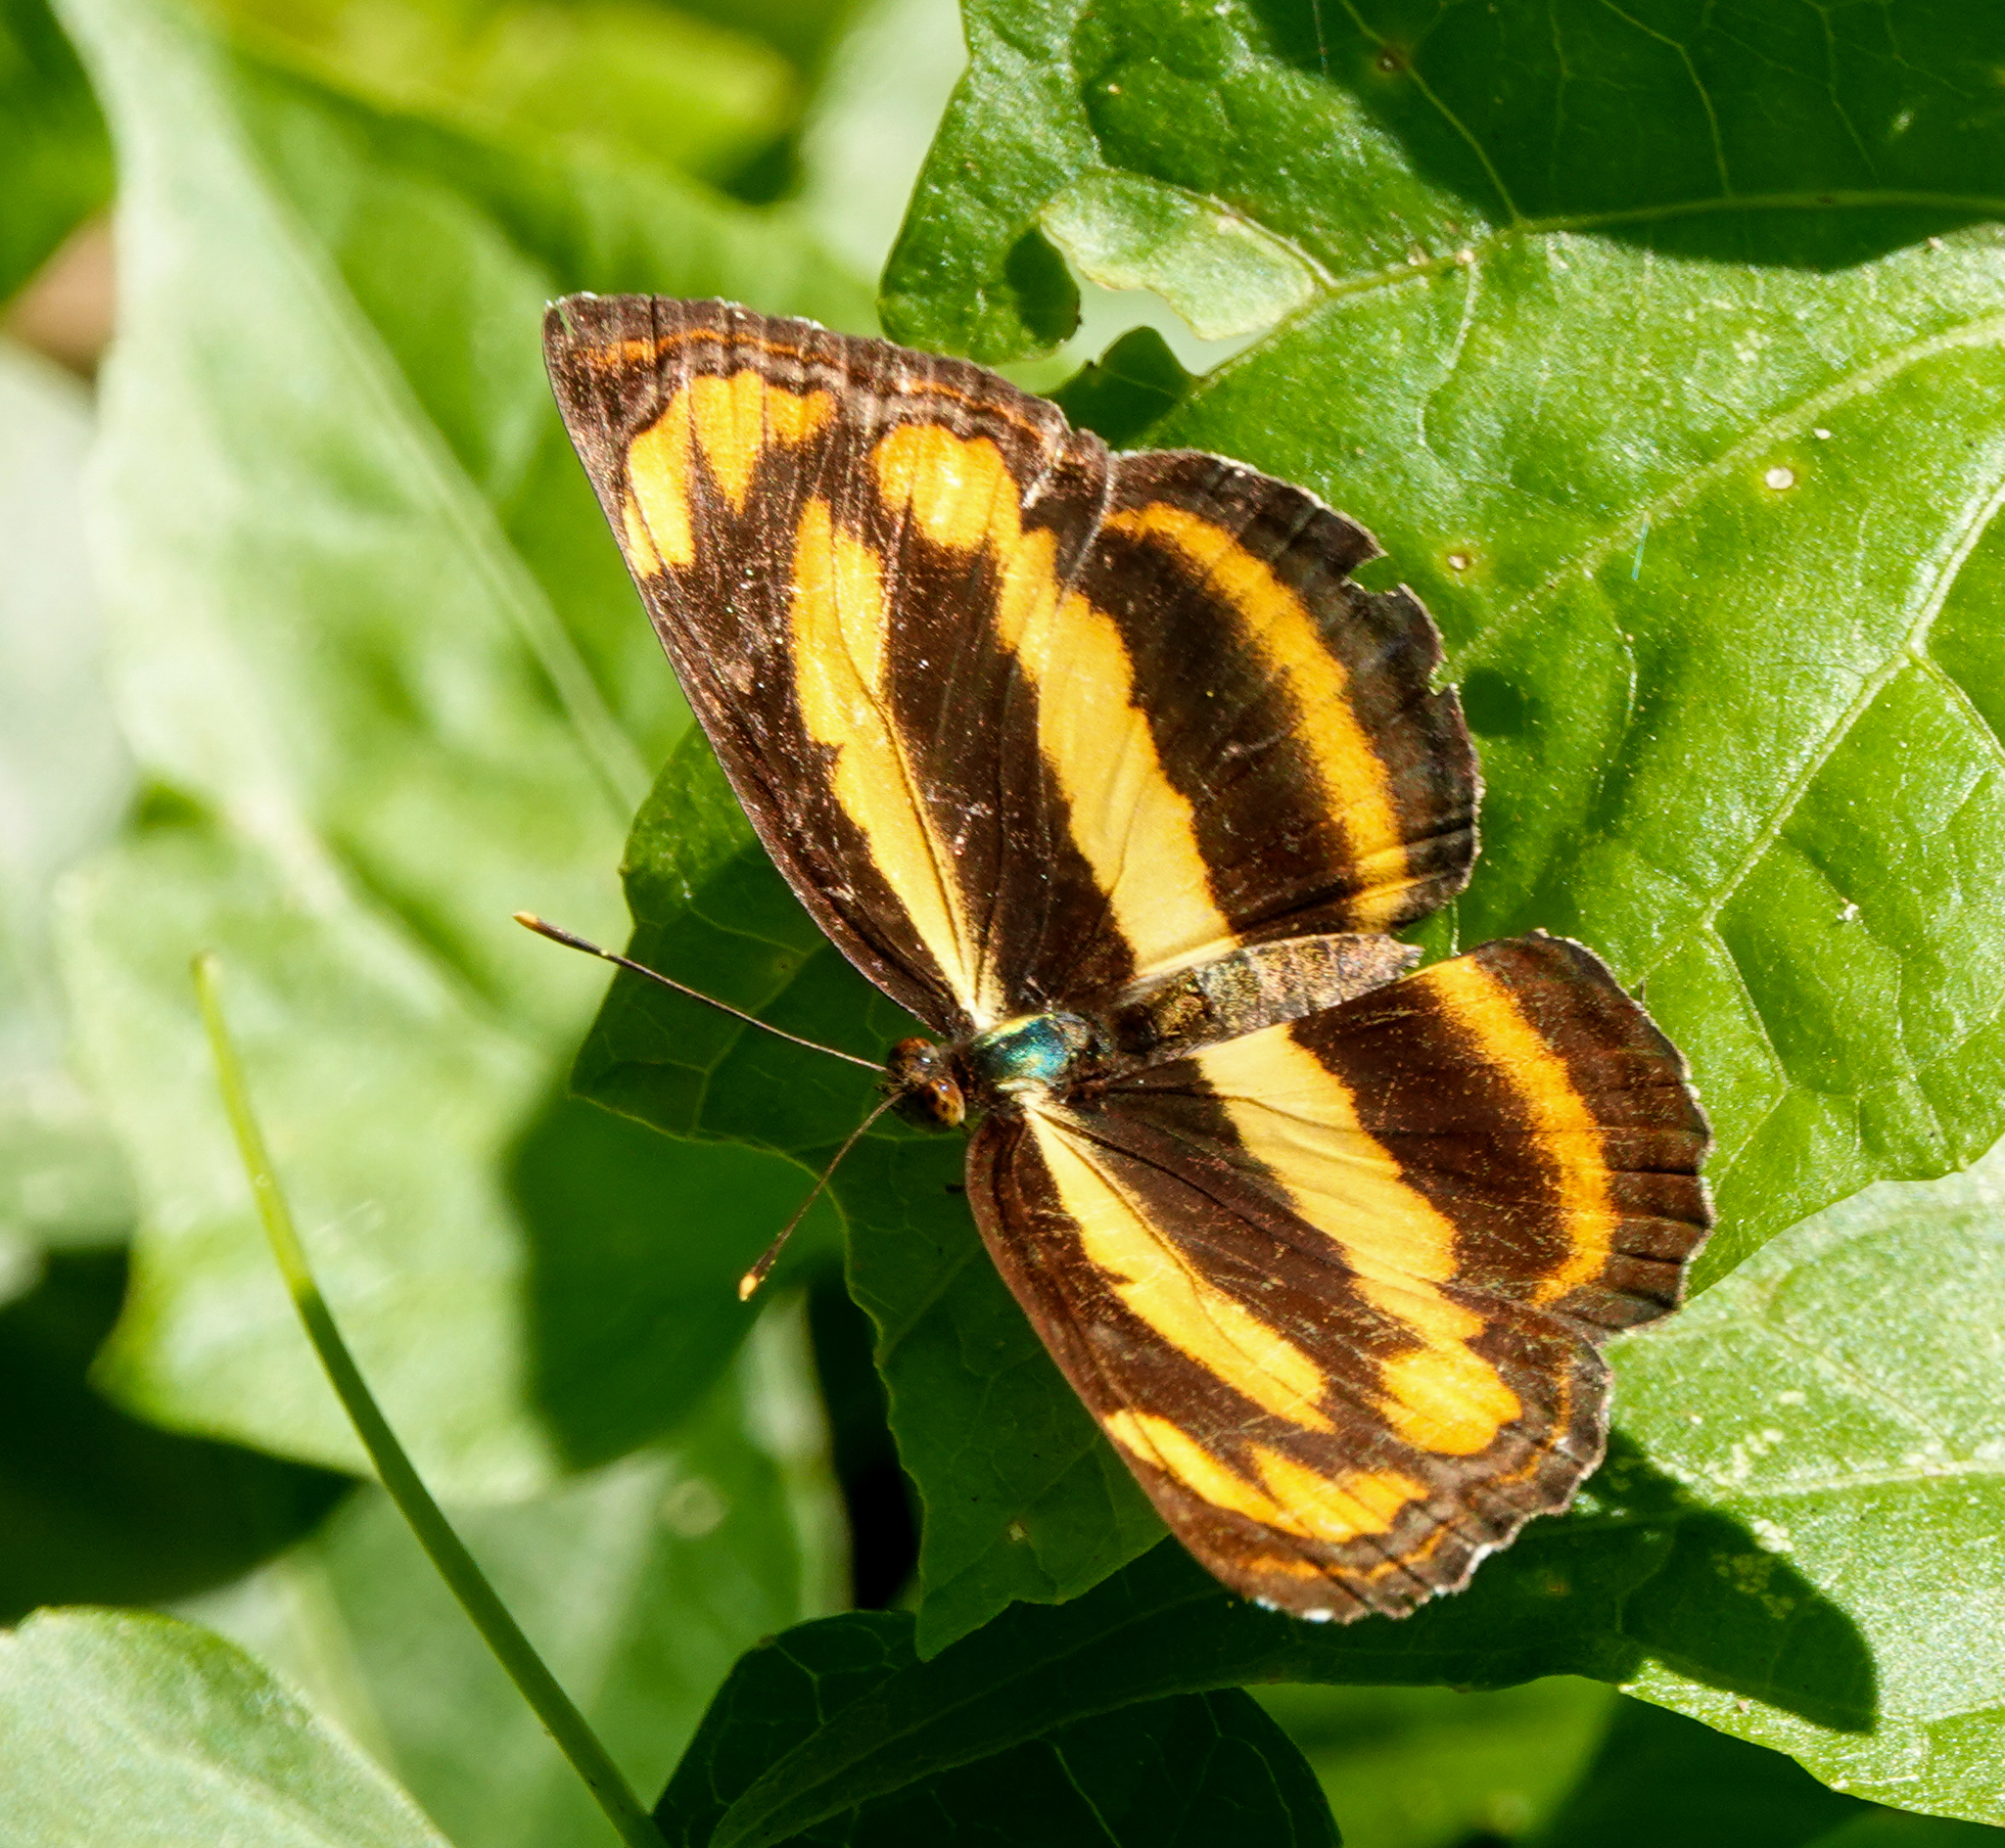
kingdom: Animalia
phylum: Arthropoda
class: Insecta
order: Lepidoptera
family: Nymphalidae
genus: Pantoporia
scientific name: Pantoporia hordonia
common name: Common lascar
